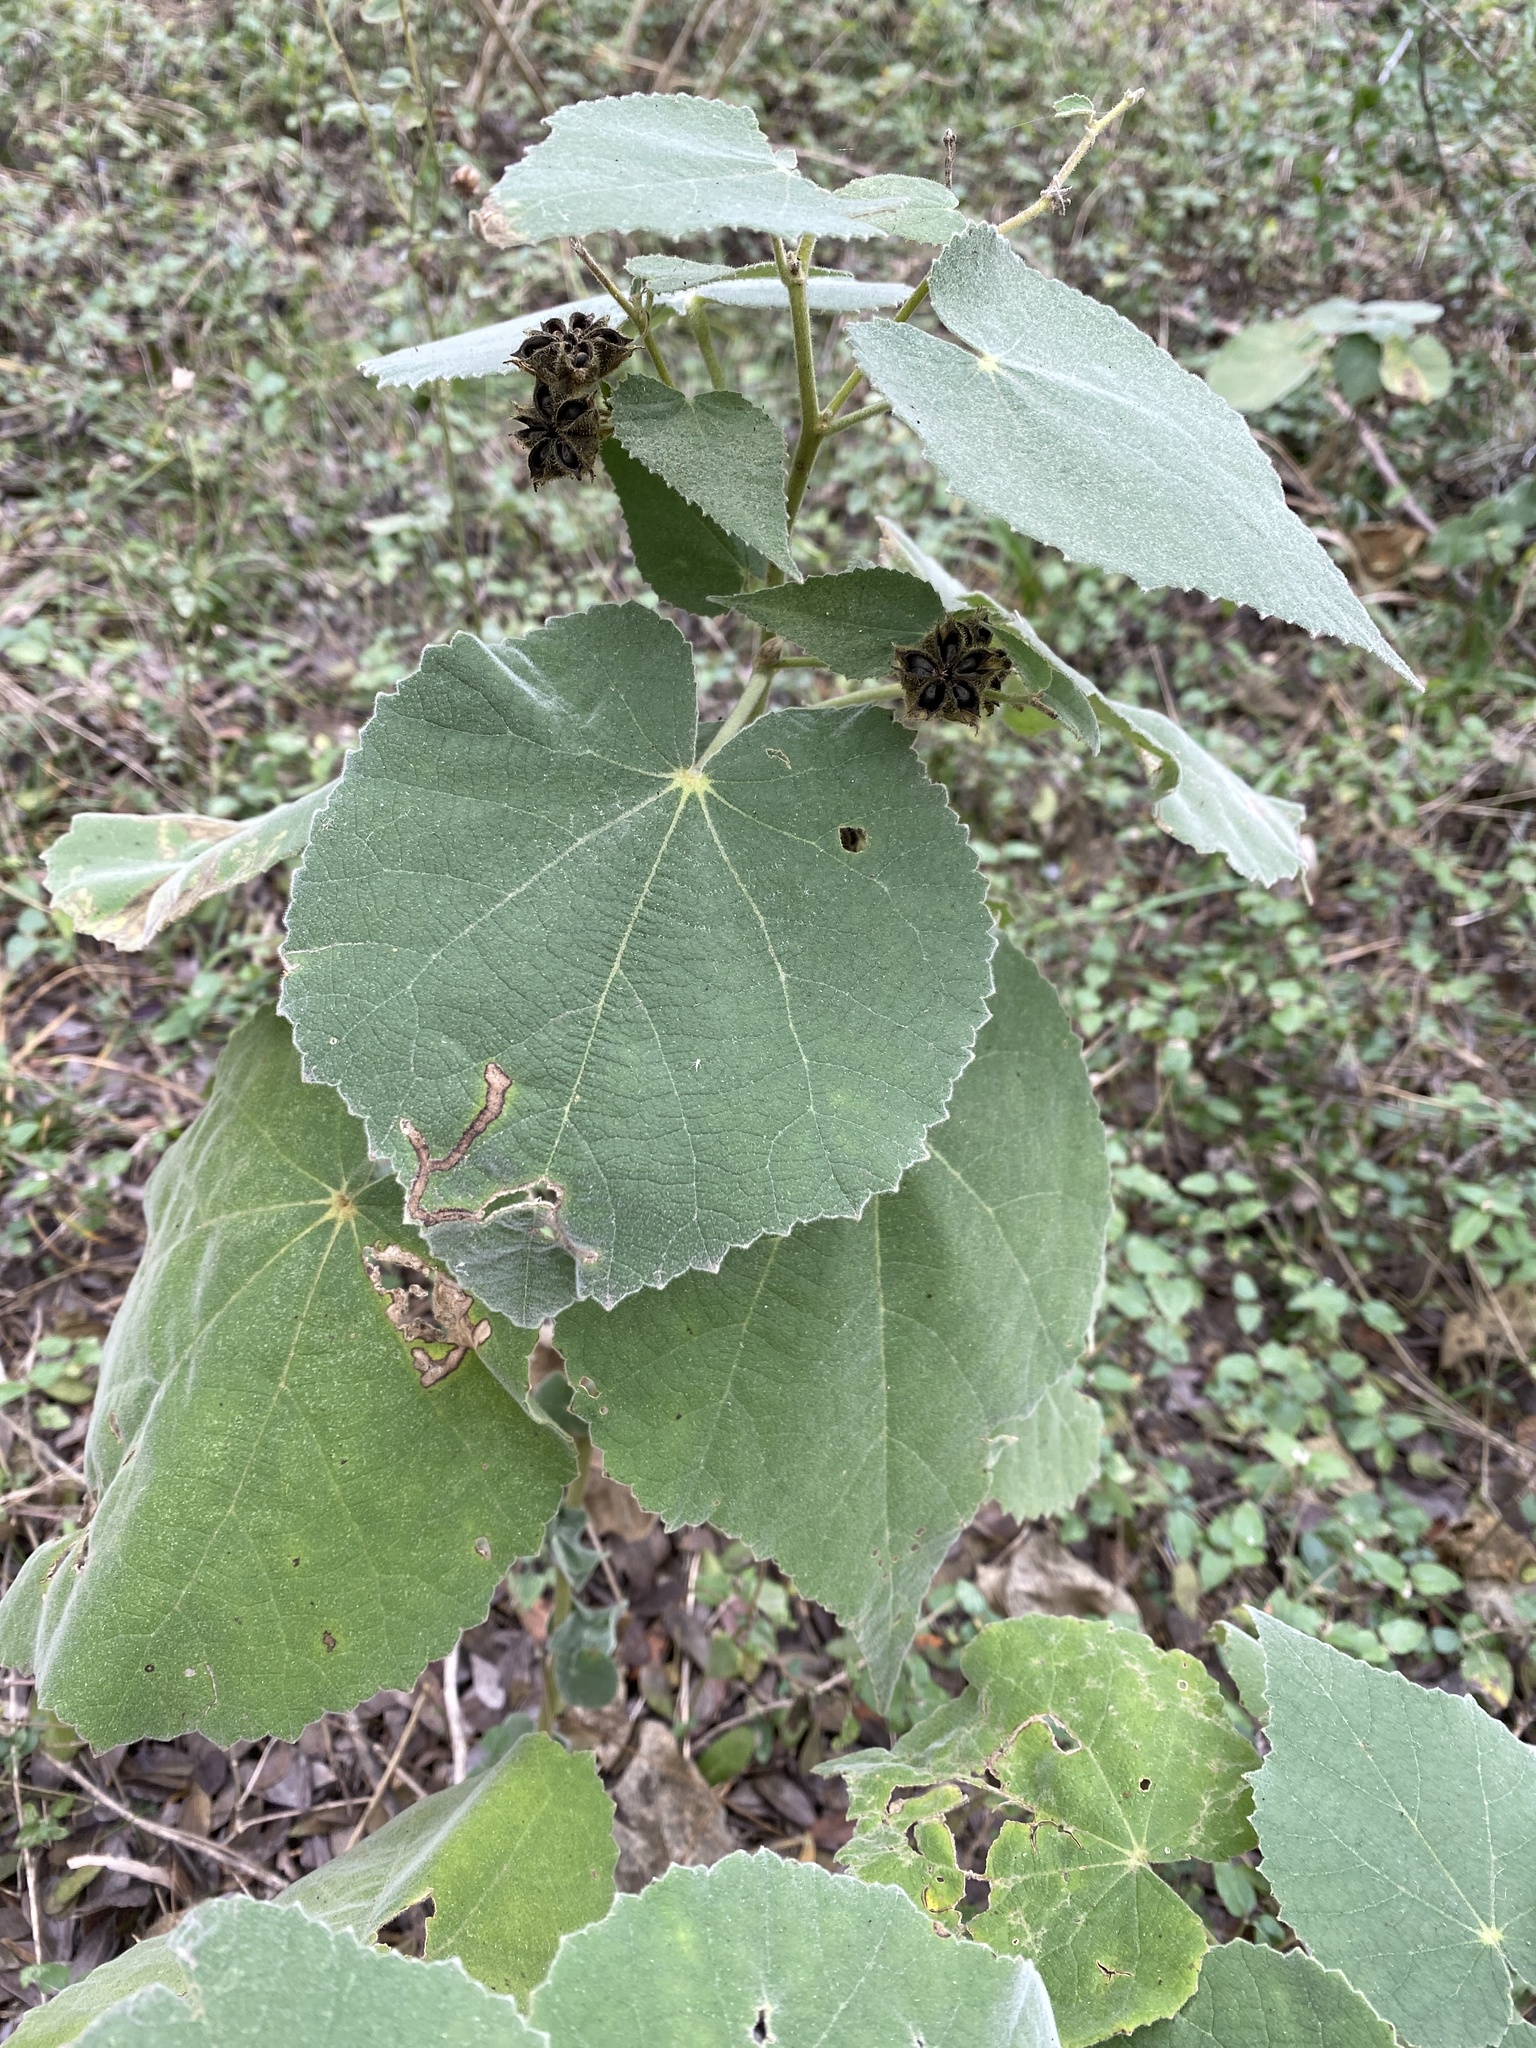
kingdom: Plantae
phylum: Tracheophyta
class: Magnoliopsida
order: Malvales
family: Malvaceae
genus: Allowissadula
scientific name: Allowissadula holosericea
